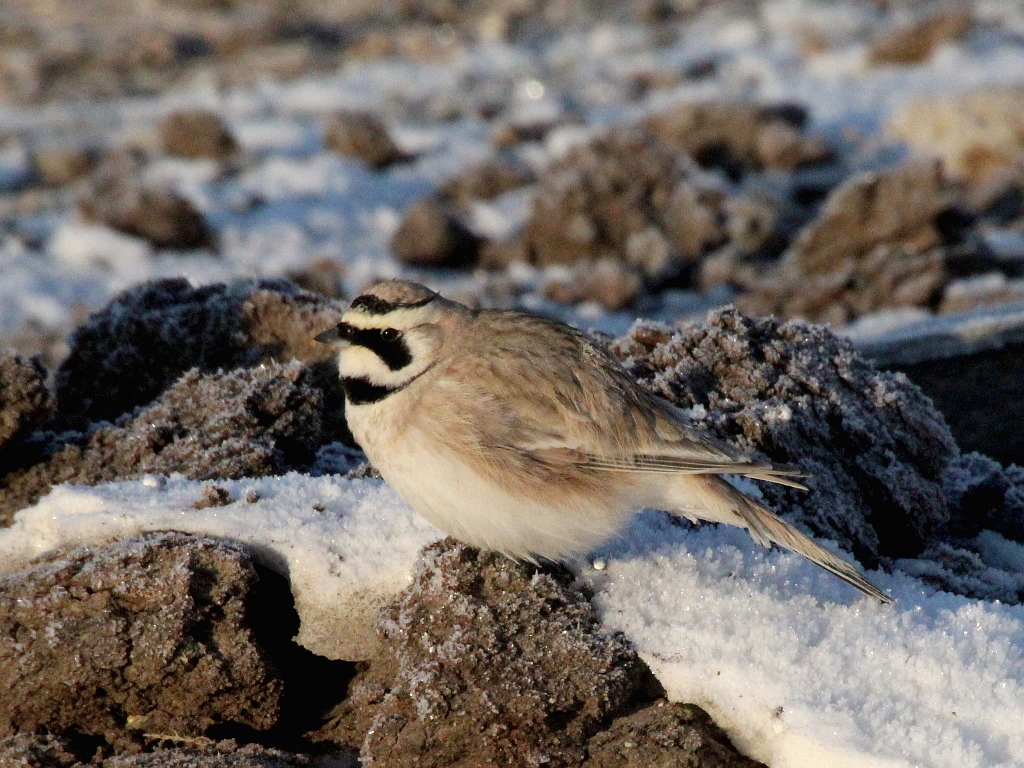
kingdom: Animalia
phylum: Chordata
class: Aves
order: Passeriformes
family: Alaudidae
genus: Eremophila
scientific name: Eremophila alpestris
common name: Horned lark
